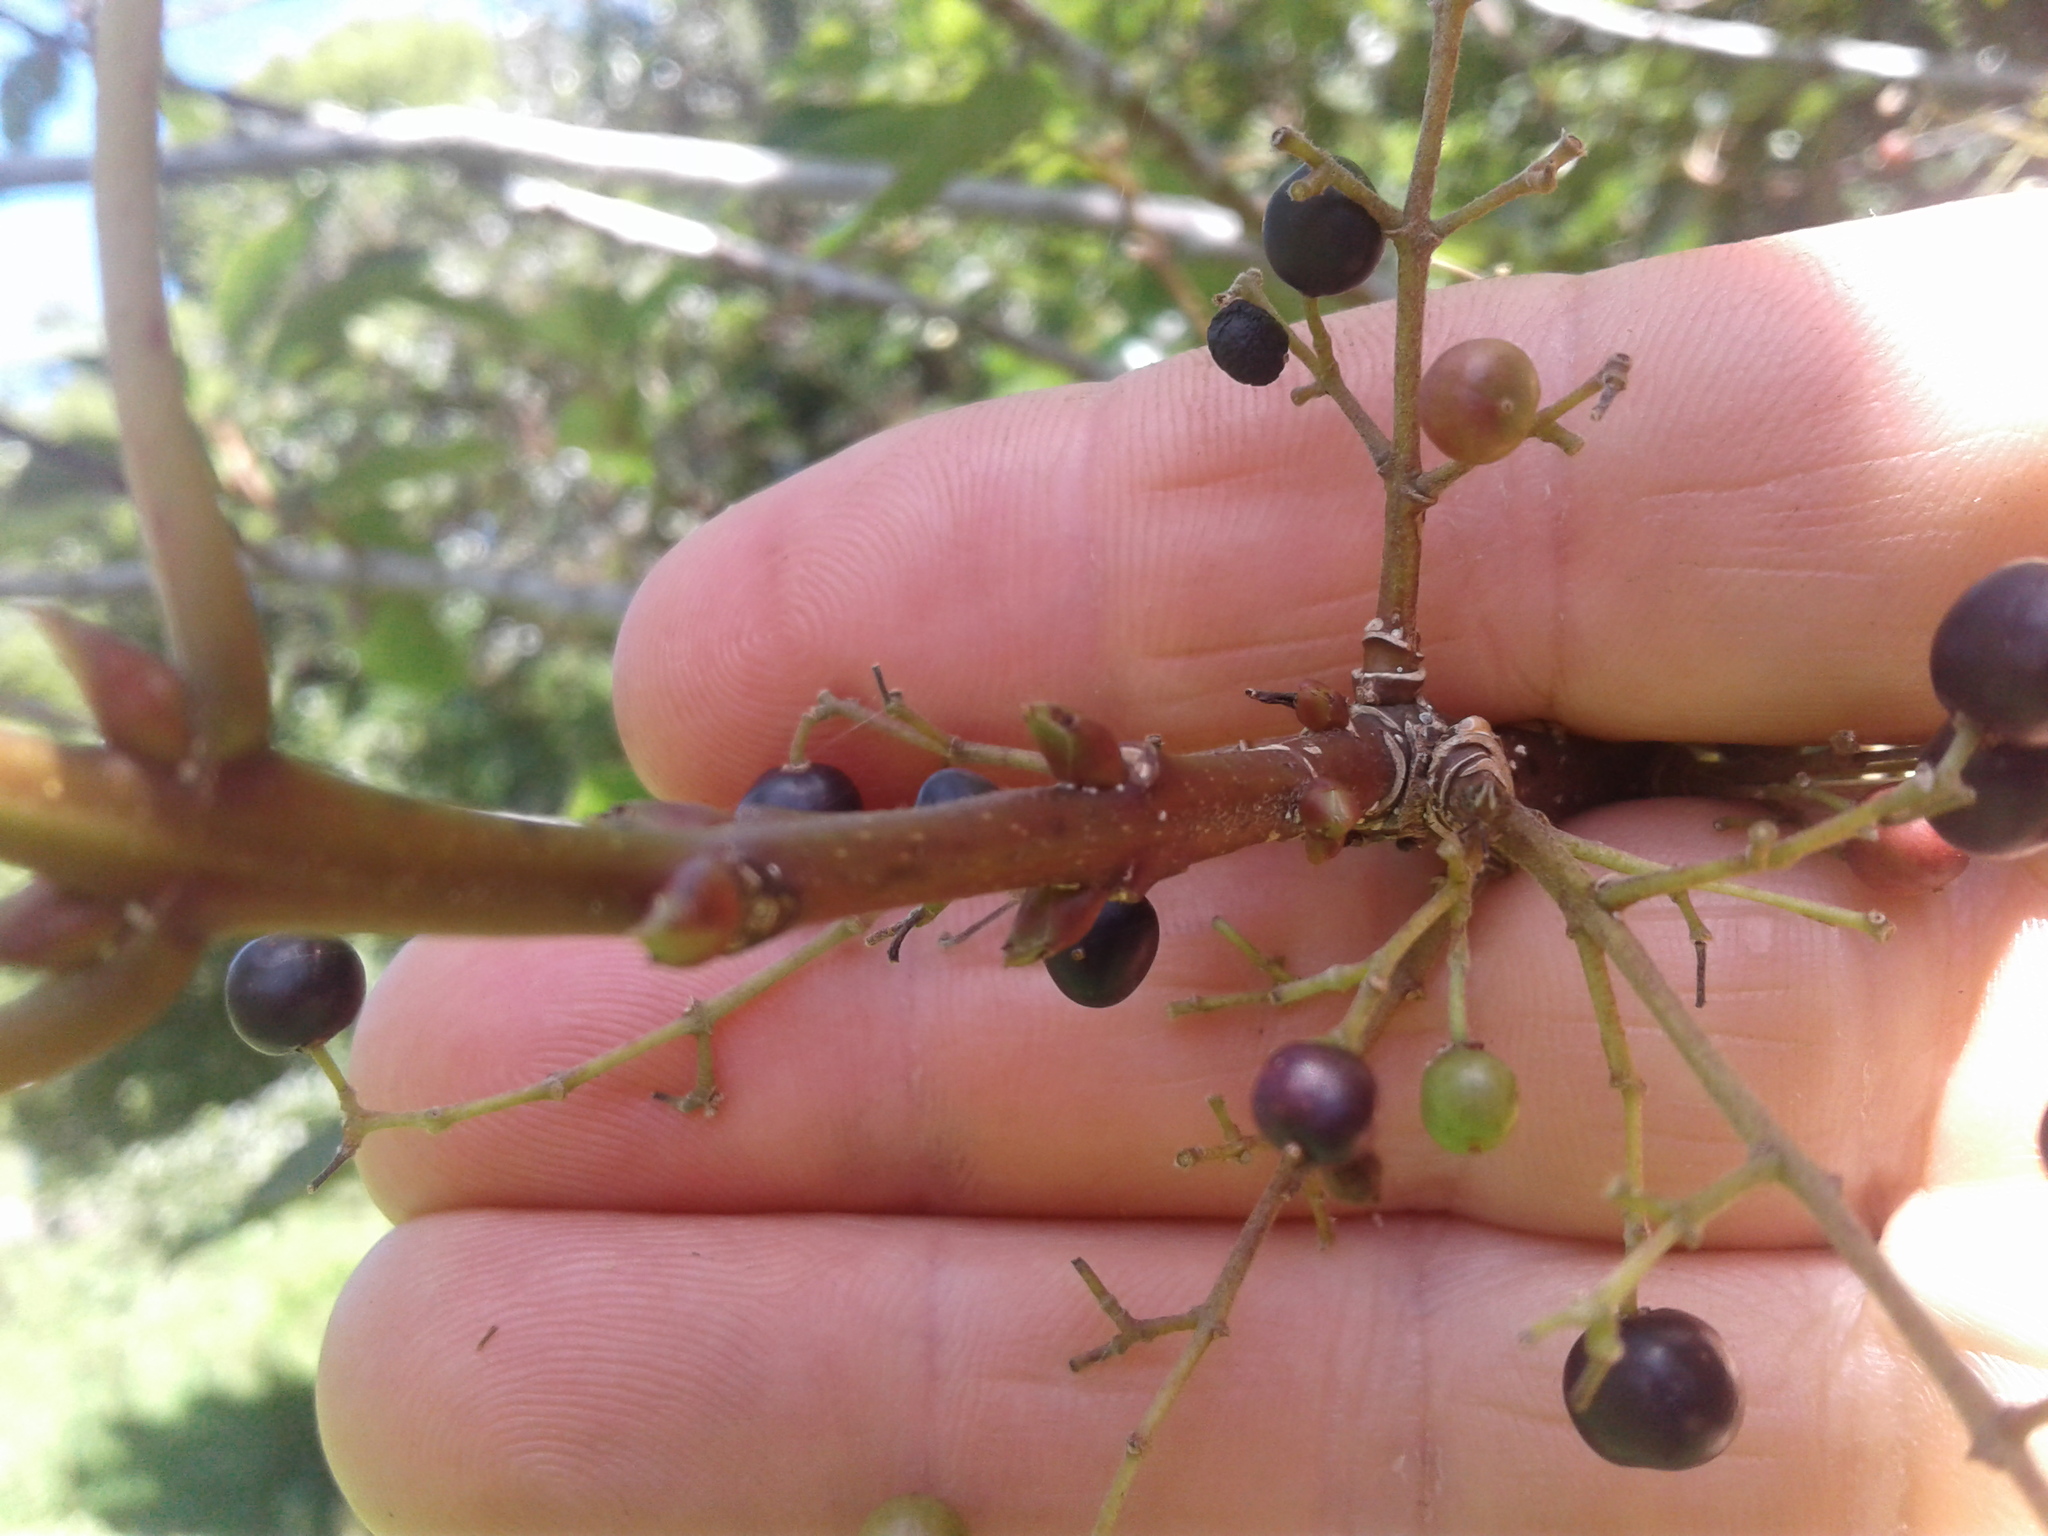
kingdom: Plantae
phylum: Tracheophyta
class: Magnoliopsida
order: Oxalidales
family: Elaeocarpaceae
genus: Aristotelia
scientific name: Aristotelia serrata
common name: New zealand wineberry
